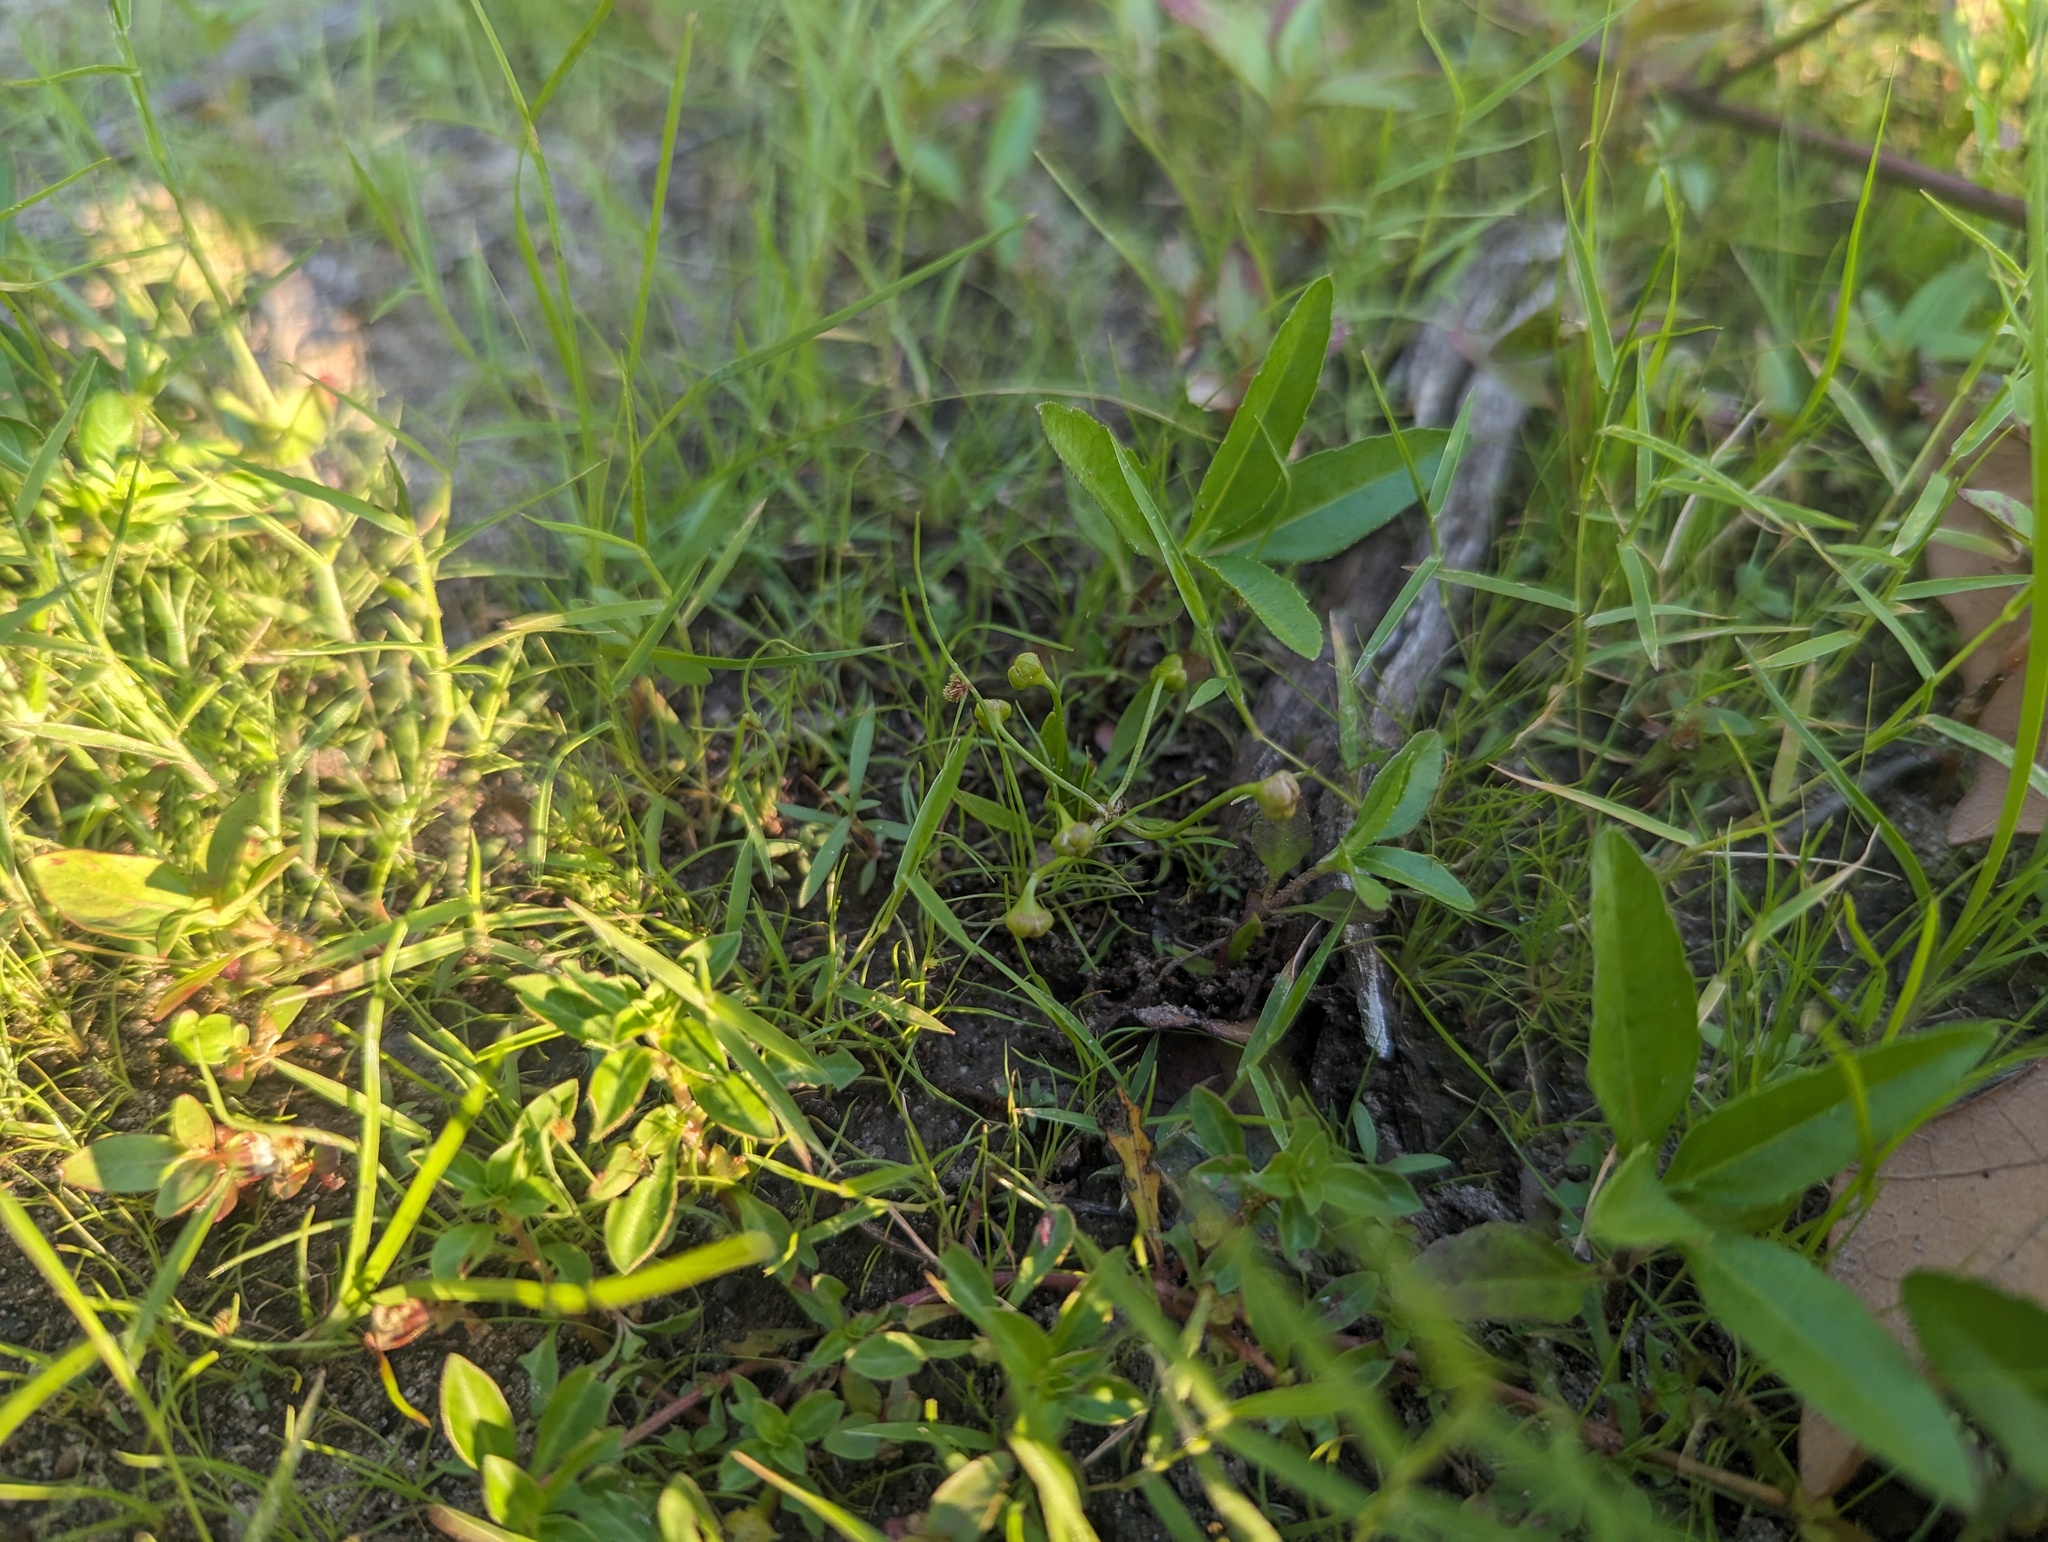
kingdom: Plantae
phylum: Tracheophyta
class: Liliopsida
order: Alismatales
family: Alismataceae
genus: Helanthium
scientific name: Helanthium tenellum
